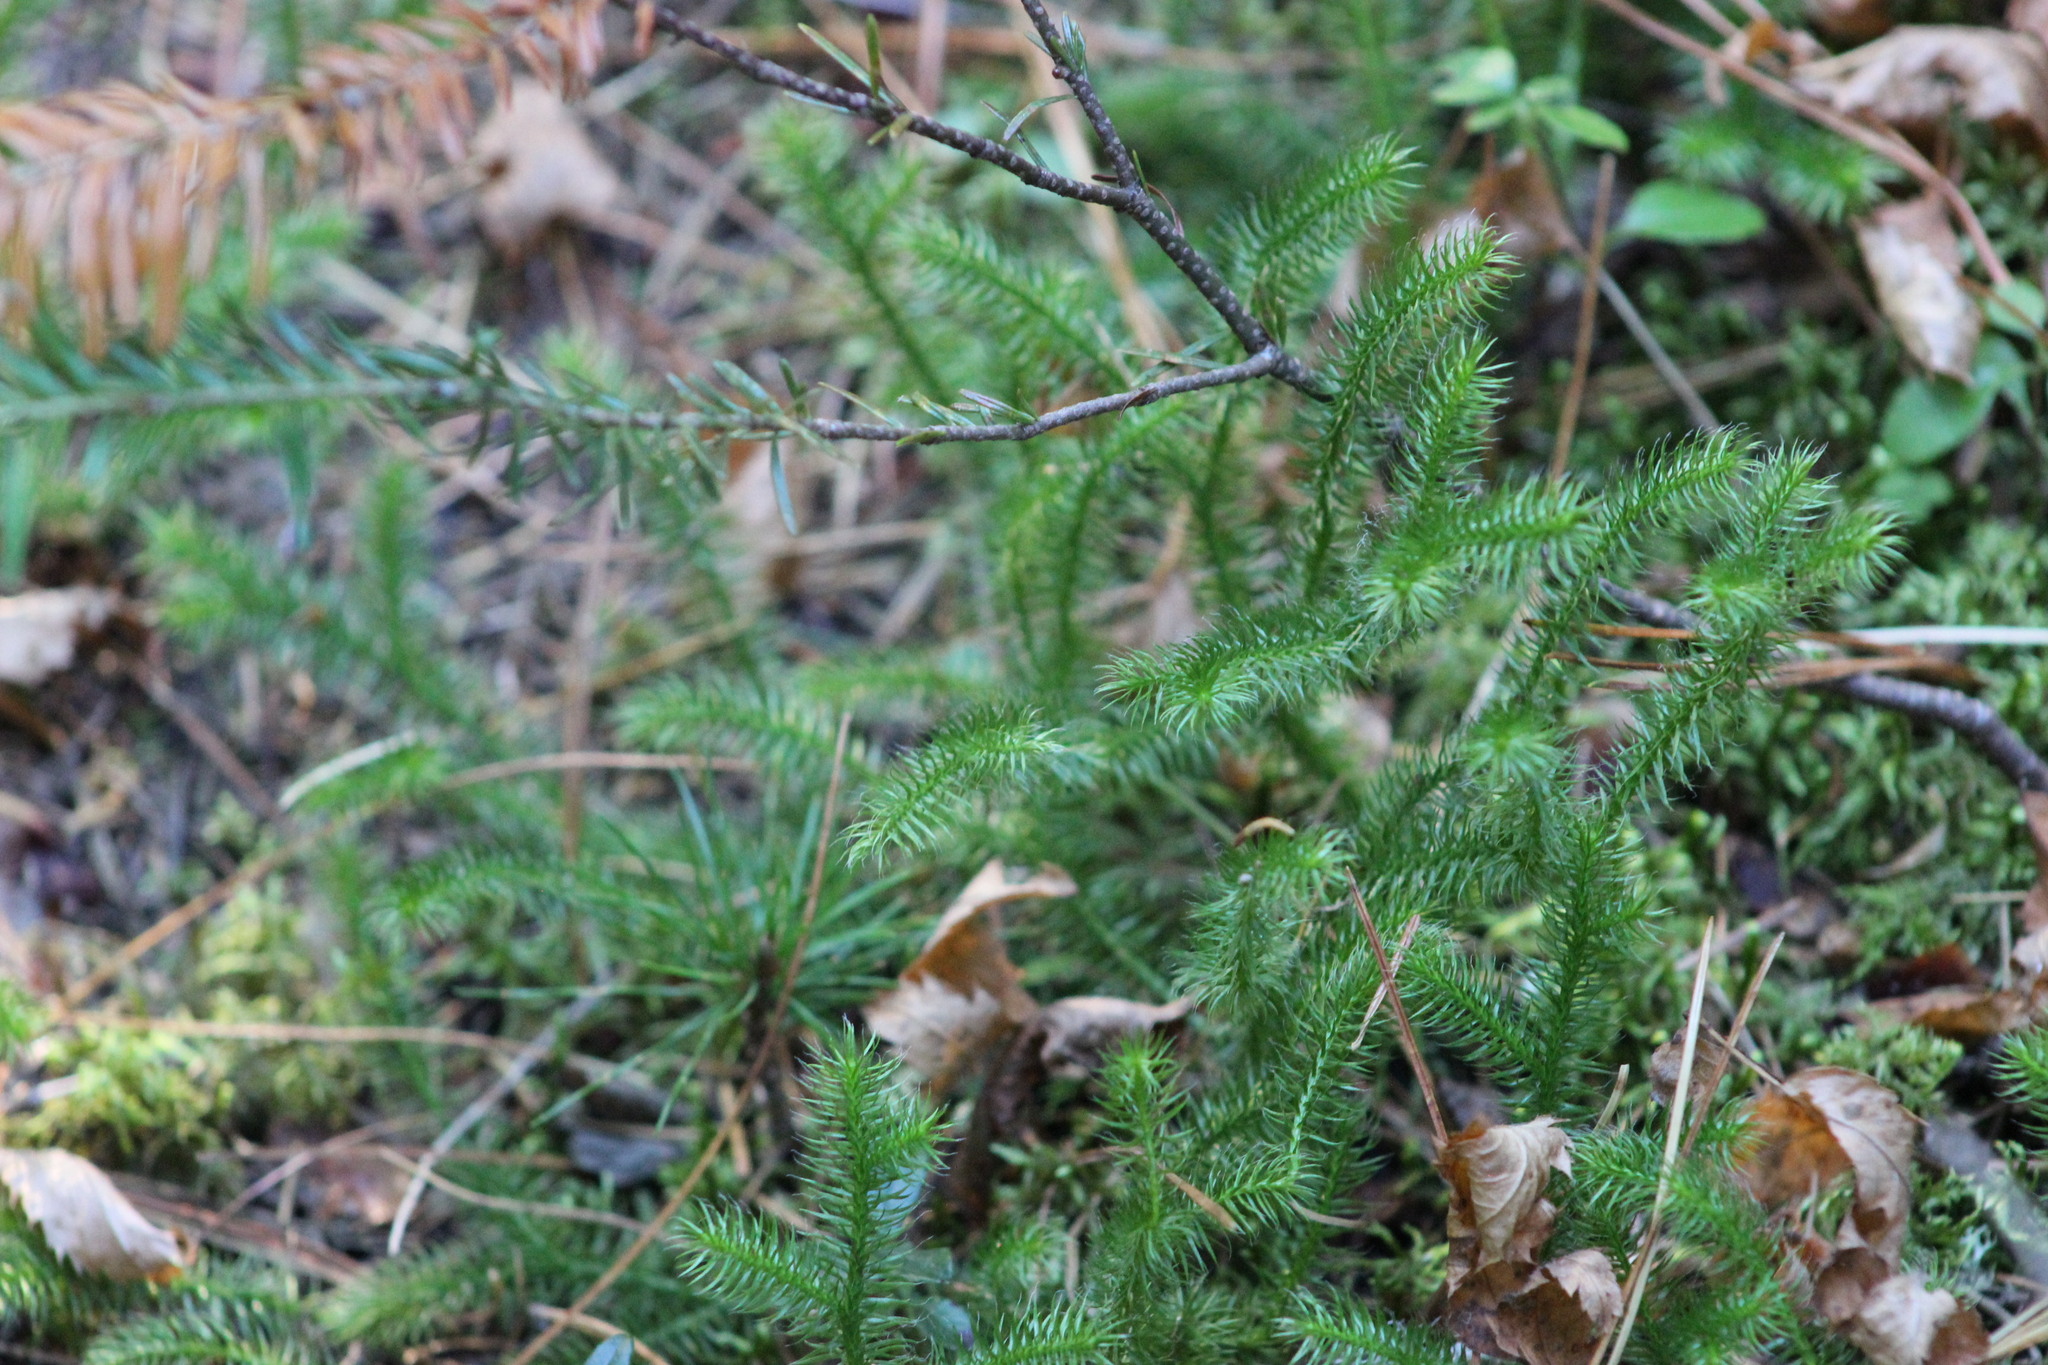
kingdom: Plantae
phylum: Tracheophyta
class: Lycopodiopsida
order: Lycopodiales
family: Lycopodiaceae
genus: Lycopodium
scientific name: Lycopodium clavatum
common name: Stag's-horn clubmoss
